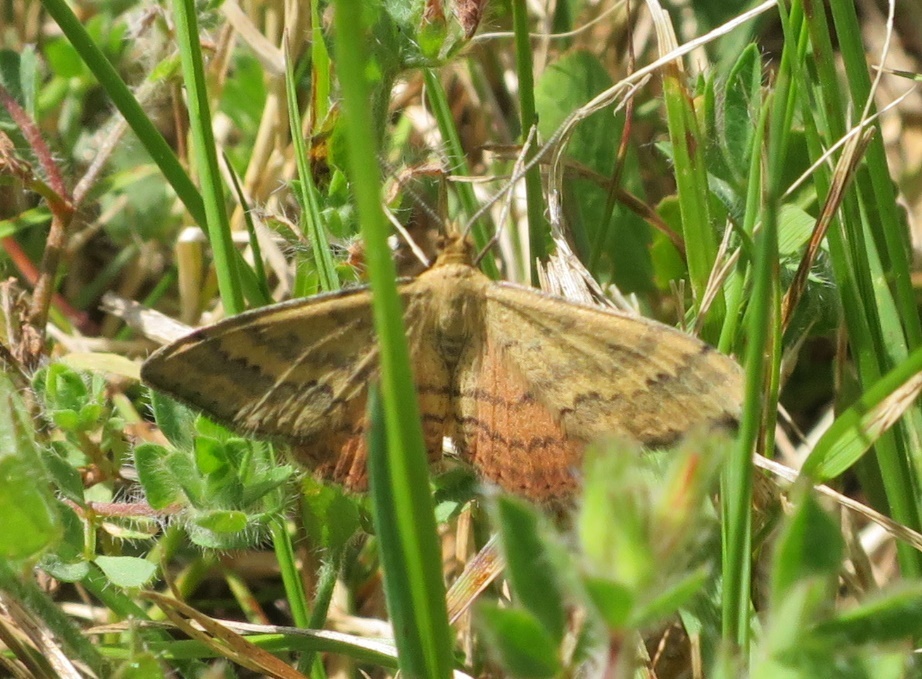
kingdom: Animalia
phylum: Arthropoda
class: Insecta
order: Lepidoptera
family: Geometridae
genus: Scopula
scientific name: Scopula rubraria
